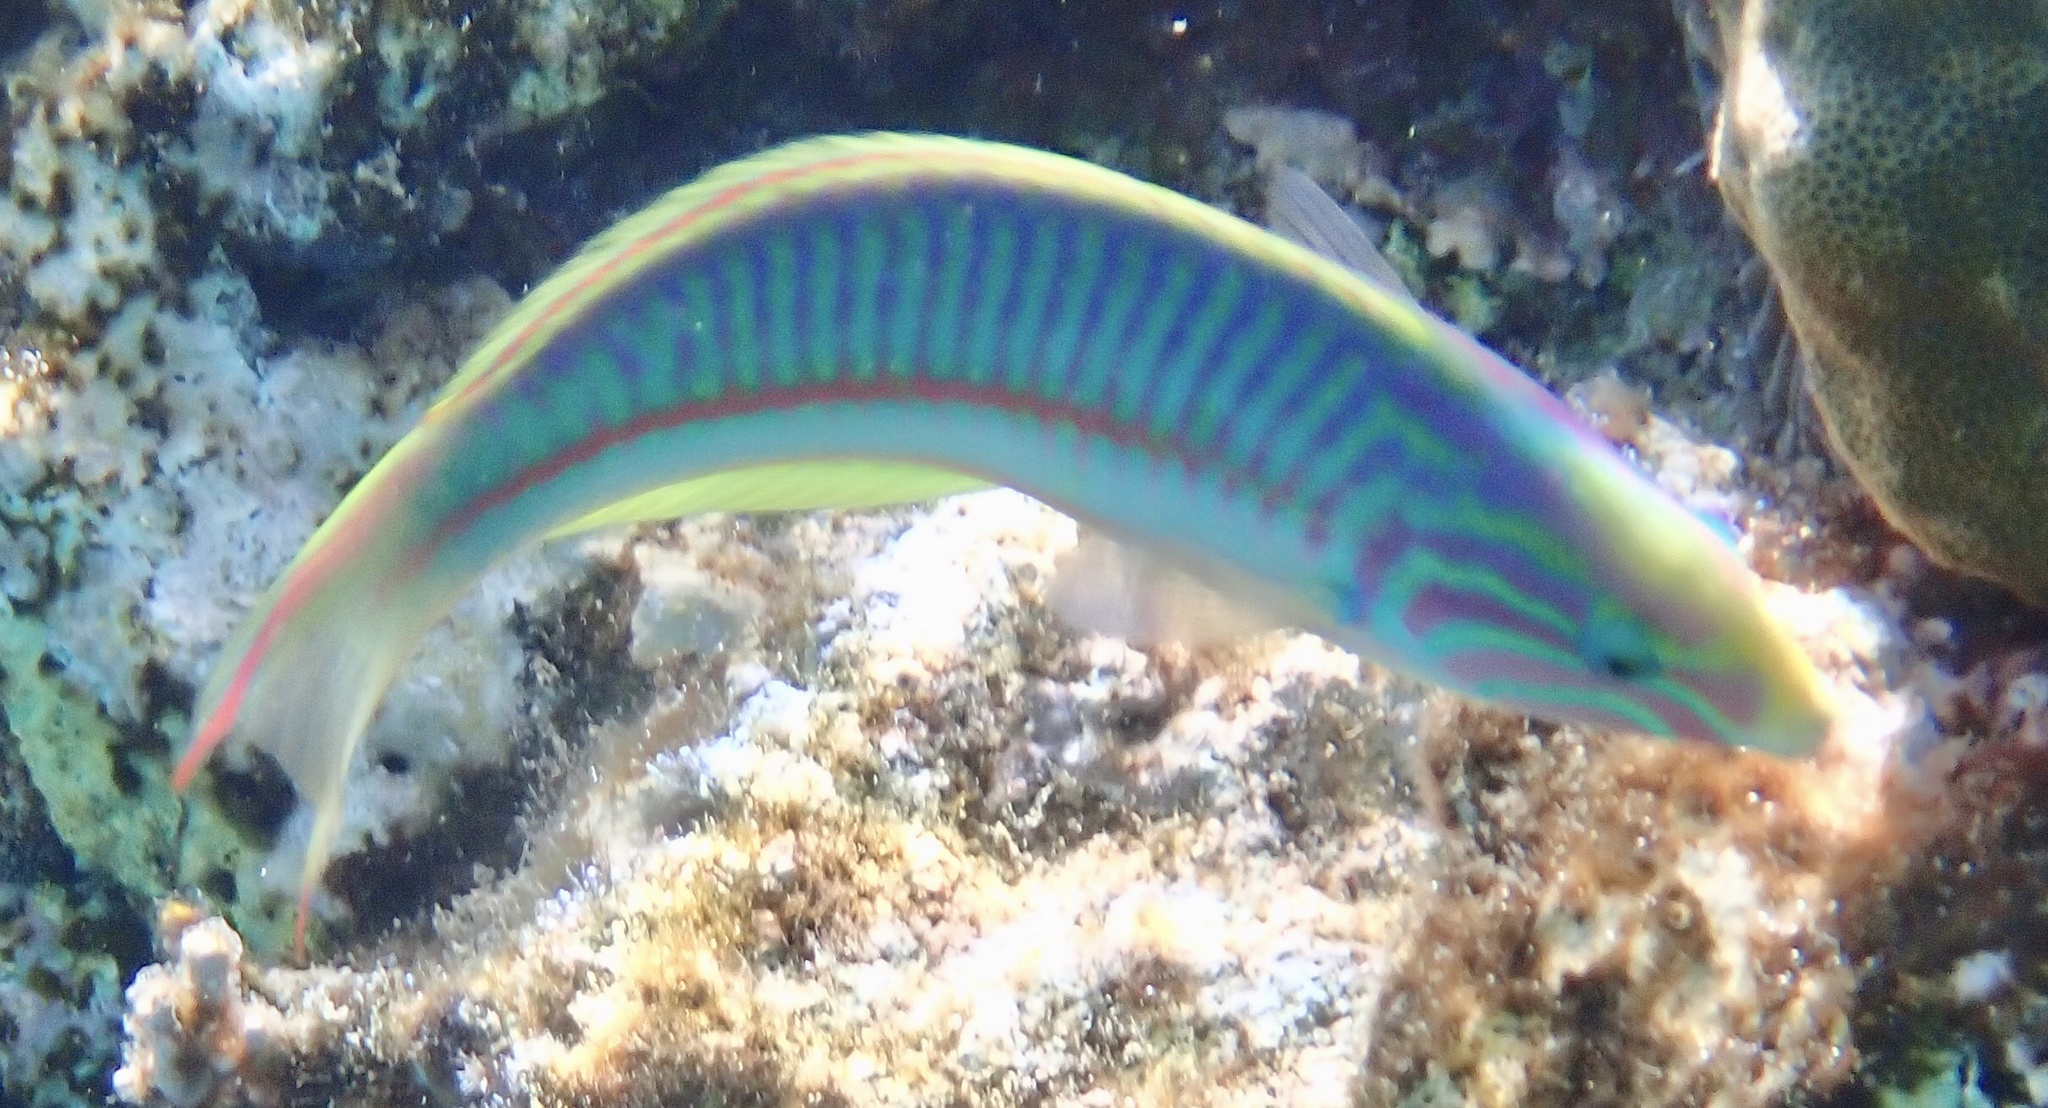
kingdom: Animalia
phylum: Chordata
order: Perciformes
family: Labridae
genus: Thalassoma
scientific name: Thalassoma rueppellii
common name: Klunzinger's wrasse
